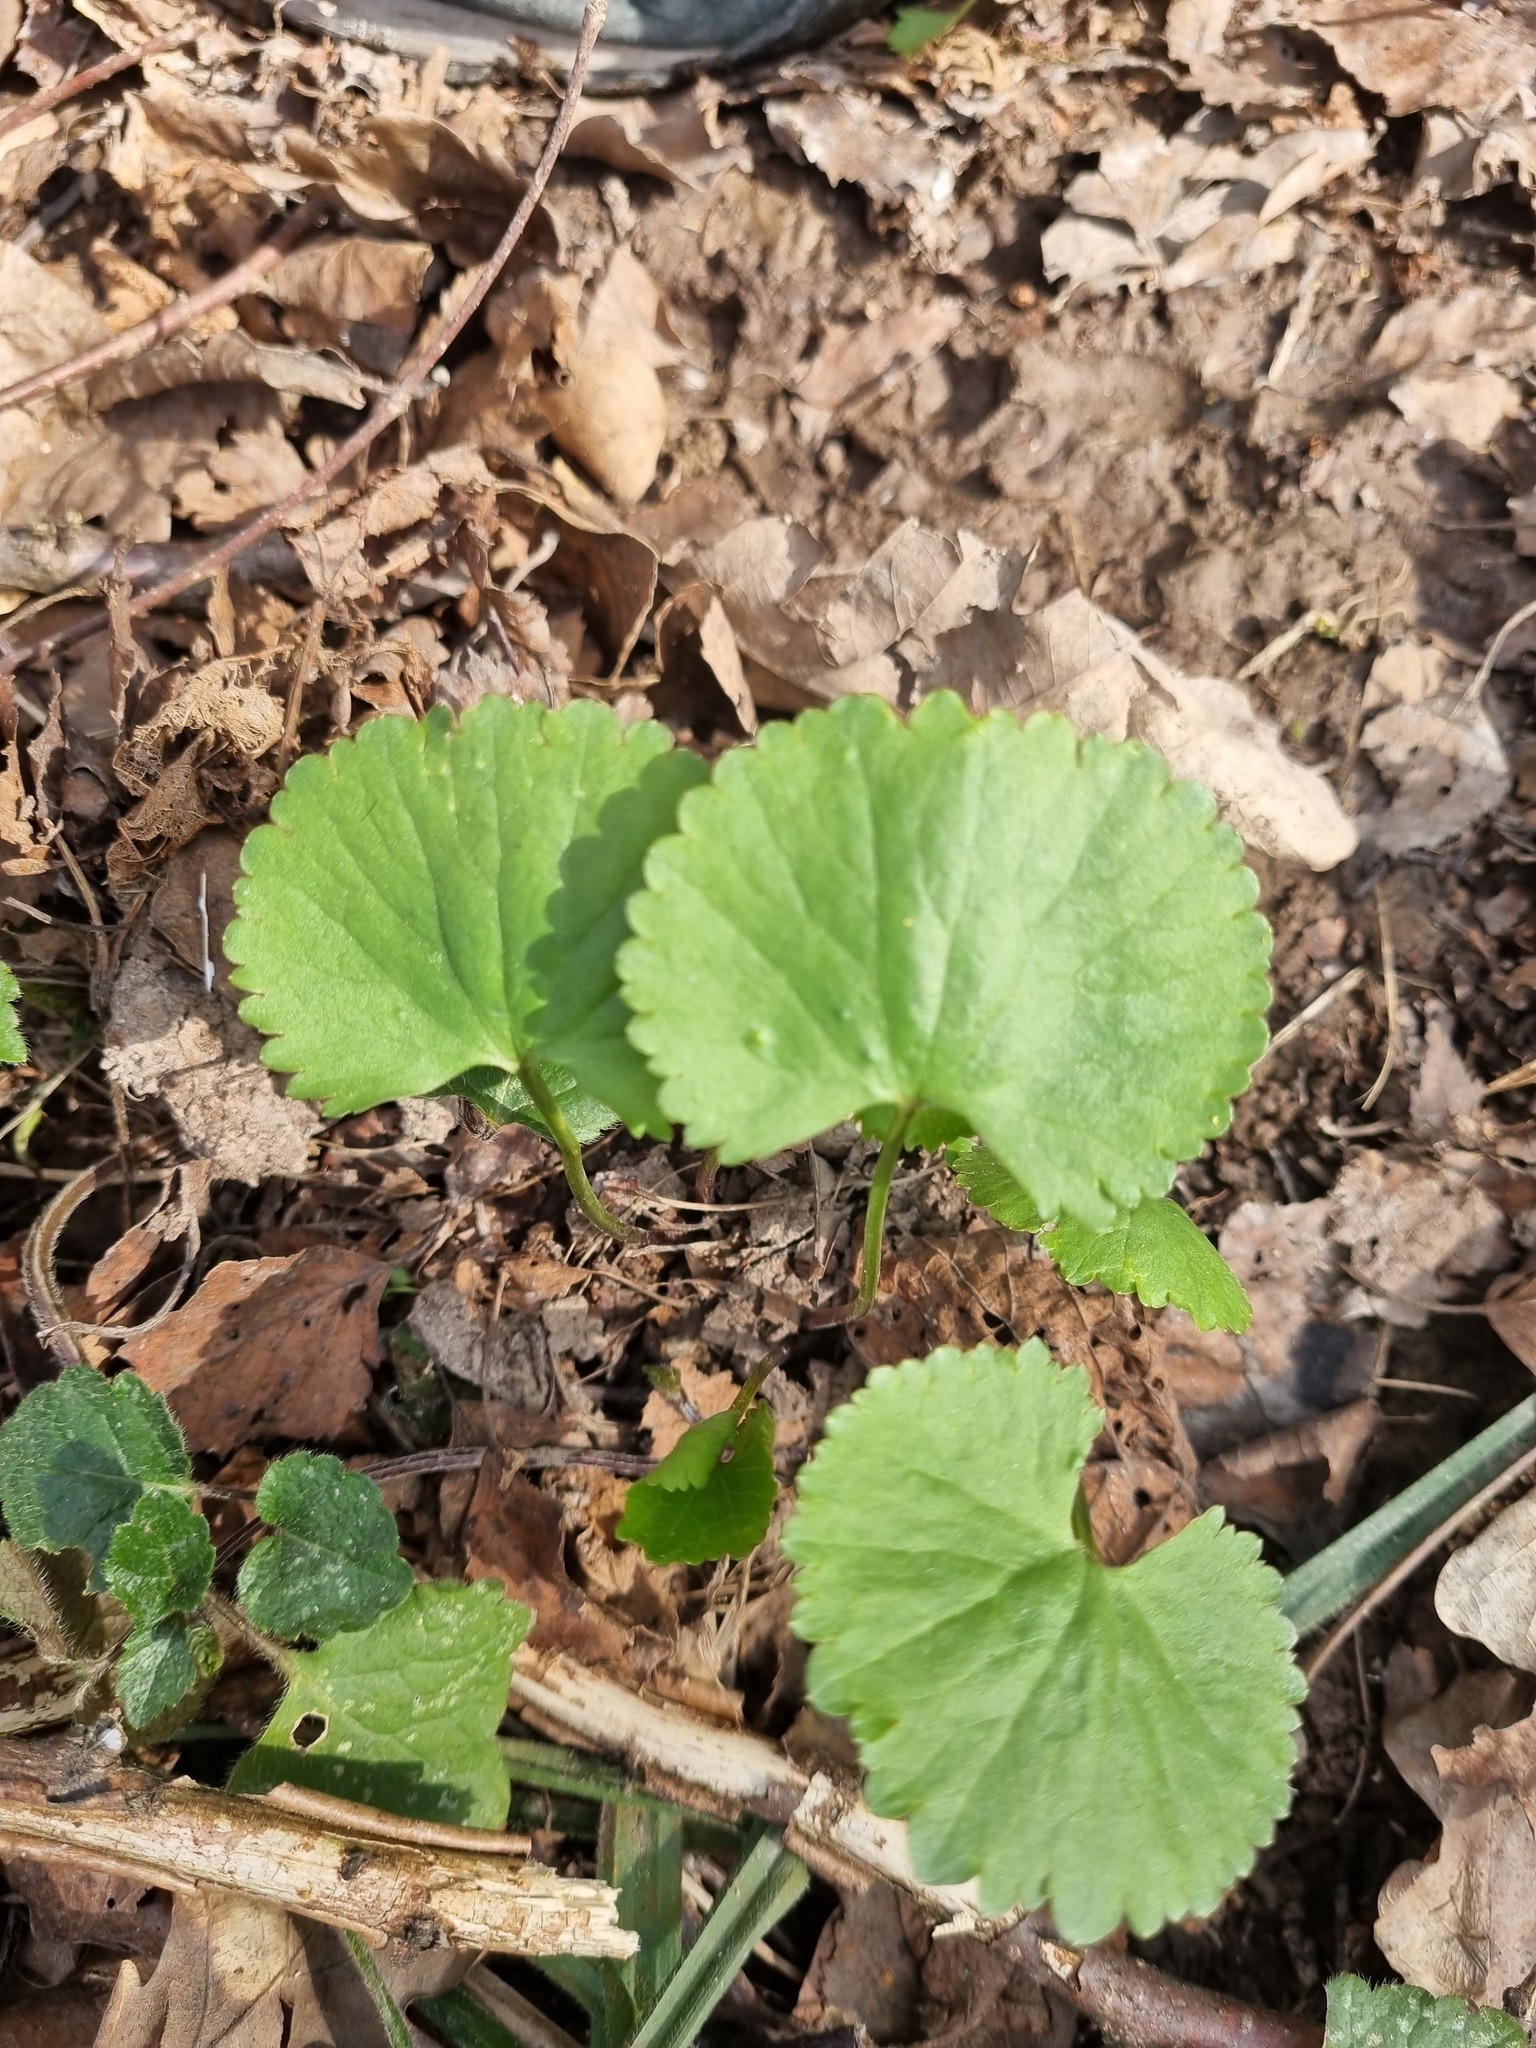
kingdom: Plantae
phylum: Tracheophyta
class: Magnoliopsida
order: Ranunculales
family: Ranunculaceae
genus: Ranunculus
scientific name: Ranunculus cassubicus
